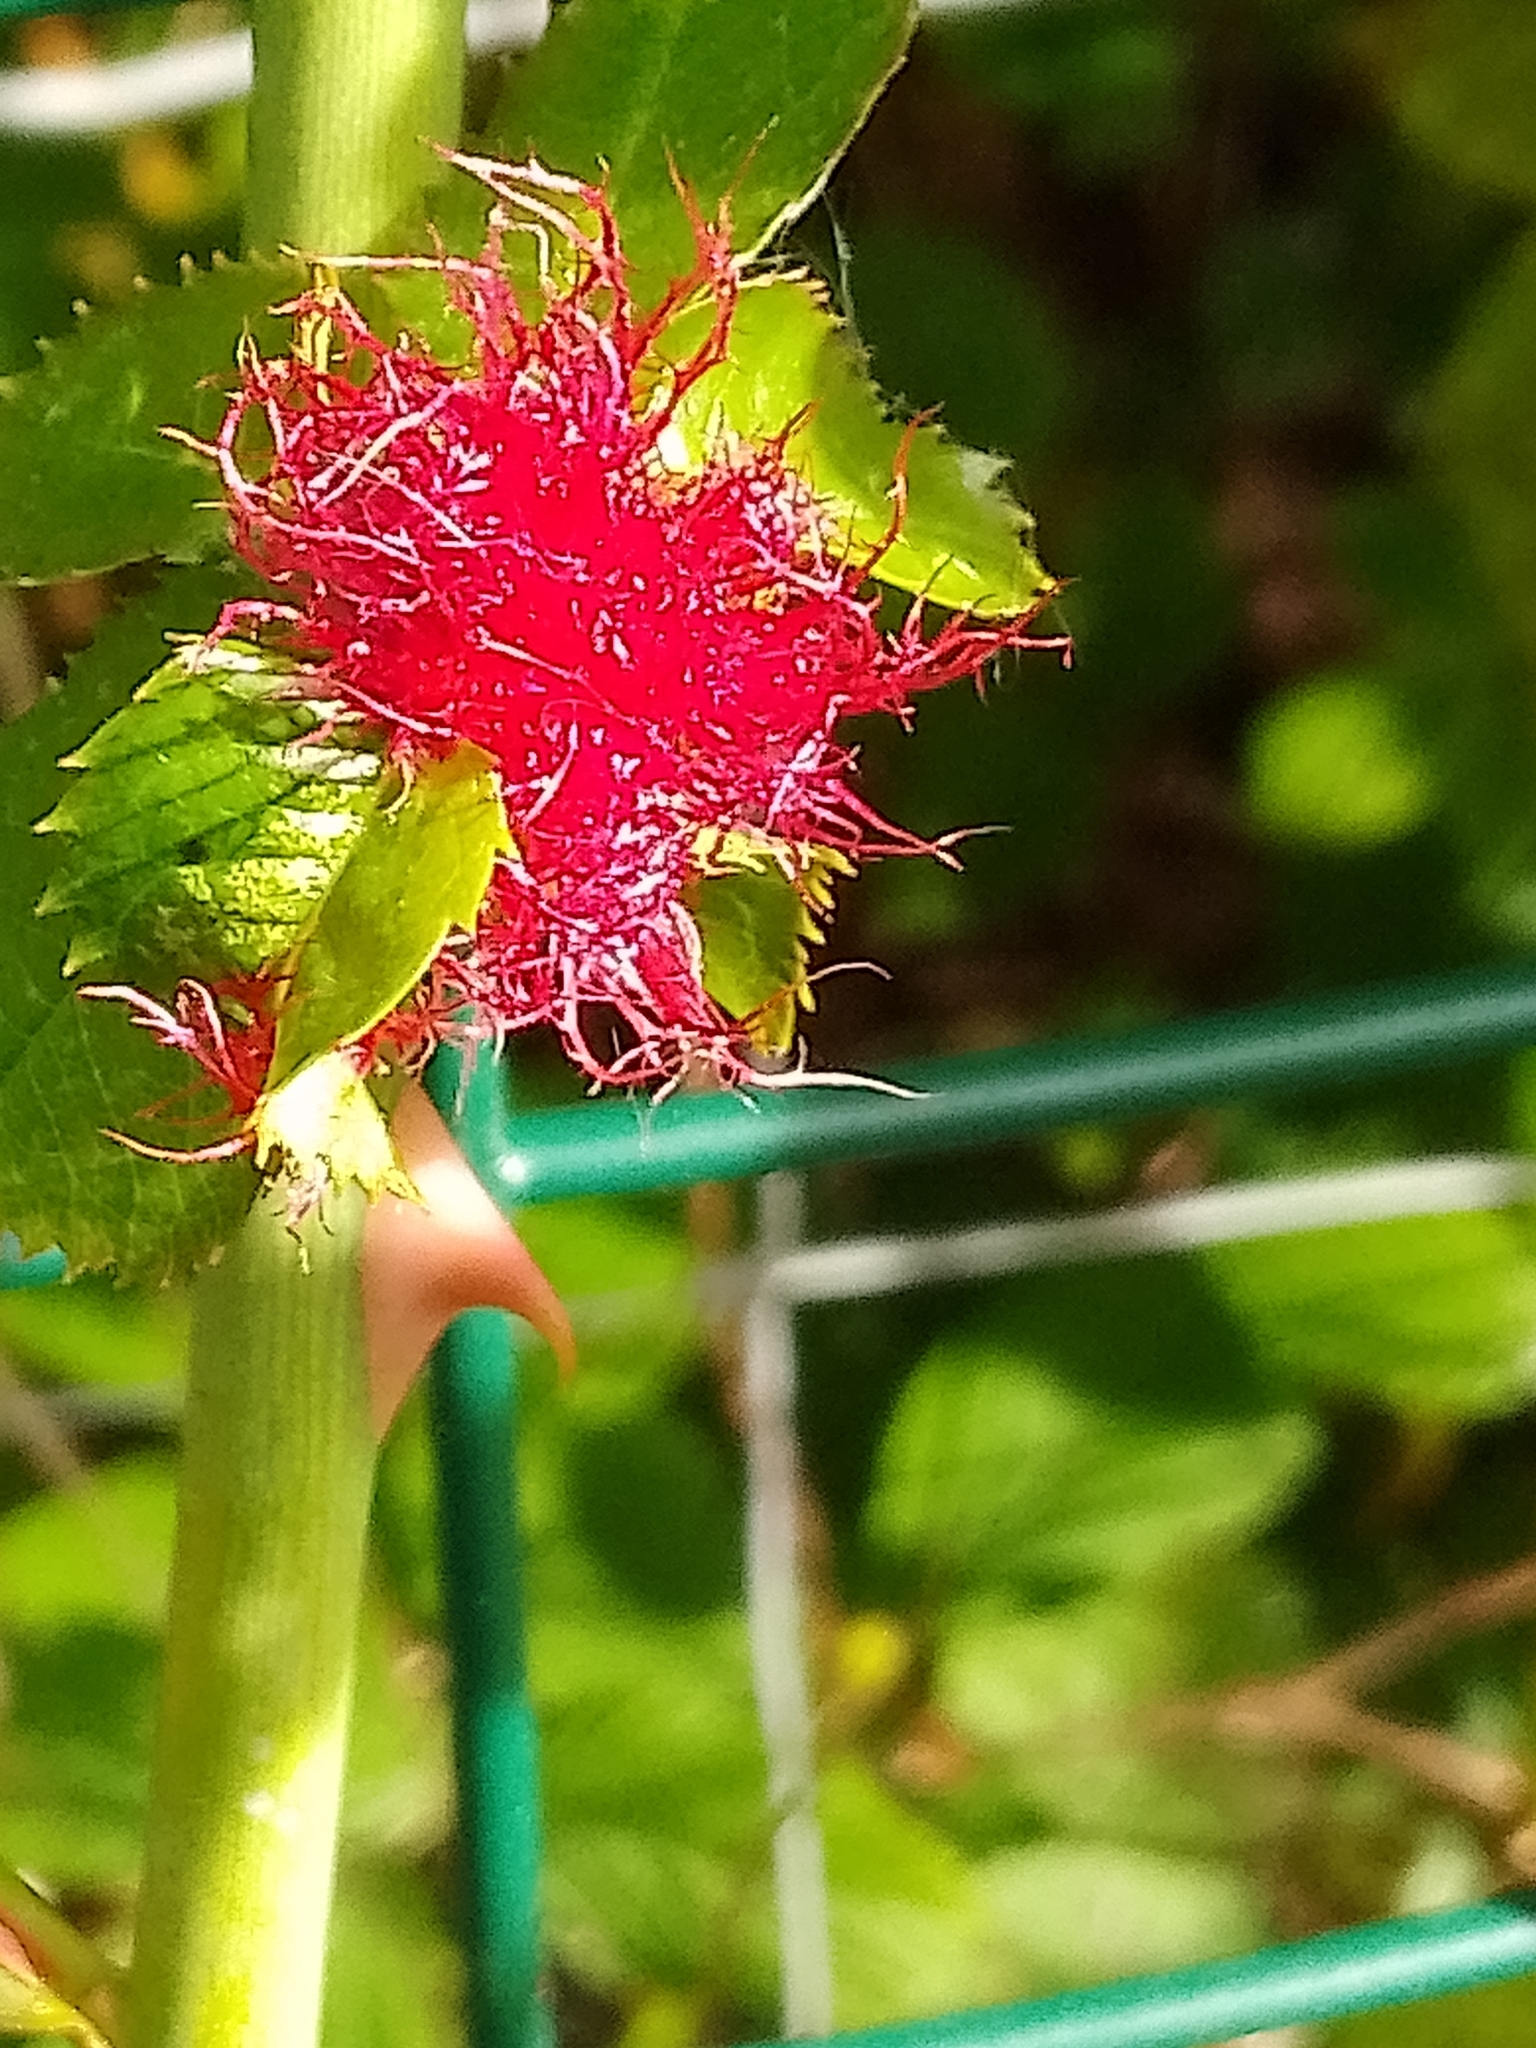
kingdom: Animalia
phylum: Arthropoda
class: Insecta
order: Hymenoptera
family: Cynipidae
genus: Diplolepis
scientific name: Diplolepis rosae
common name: Bedeguar gall
